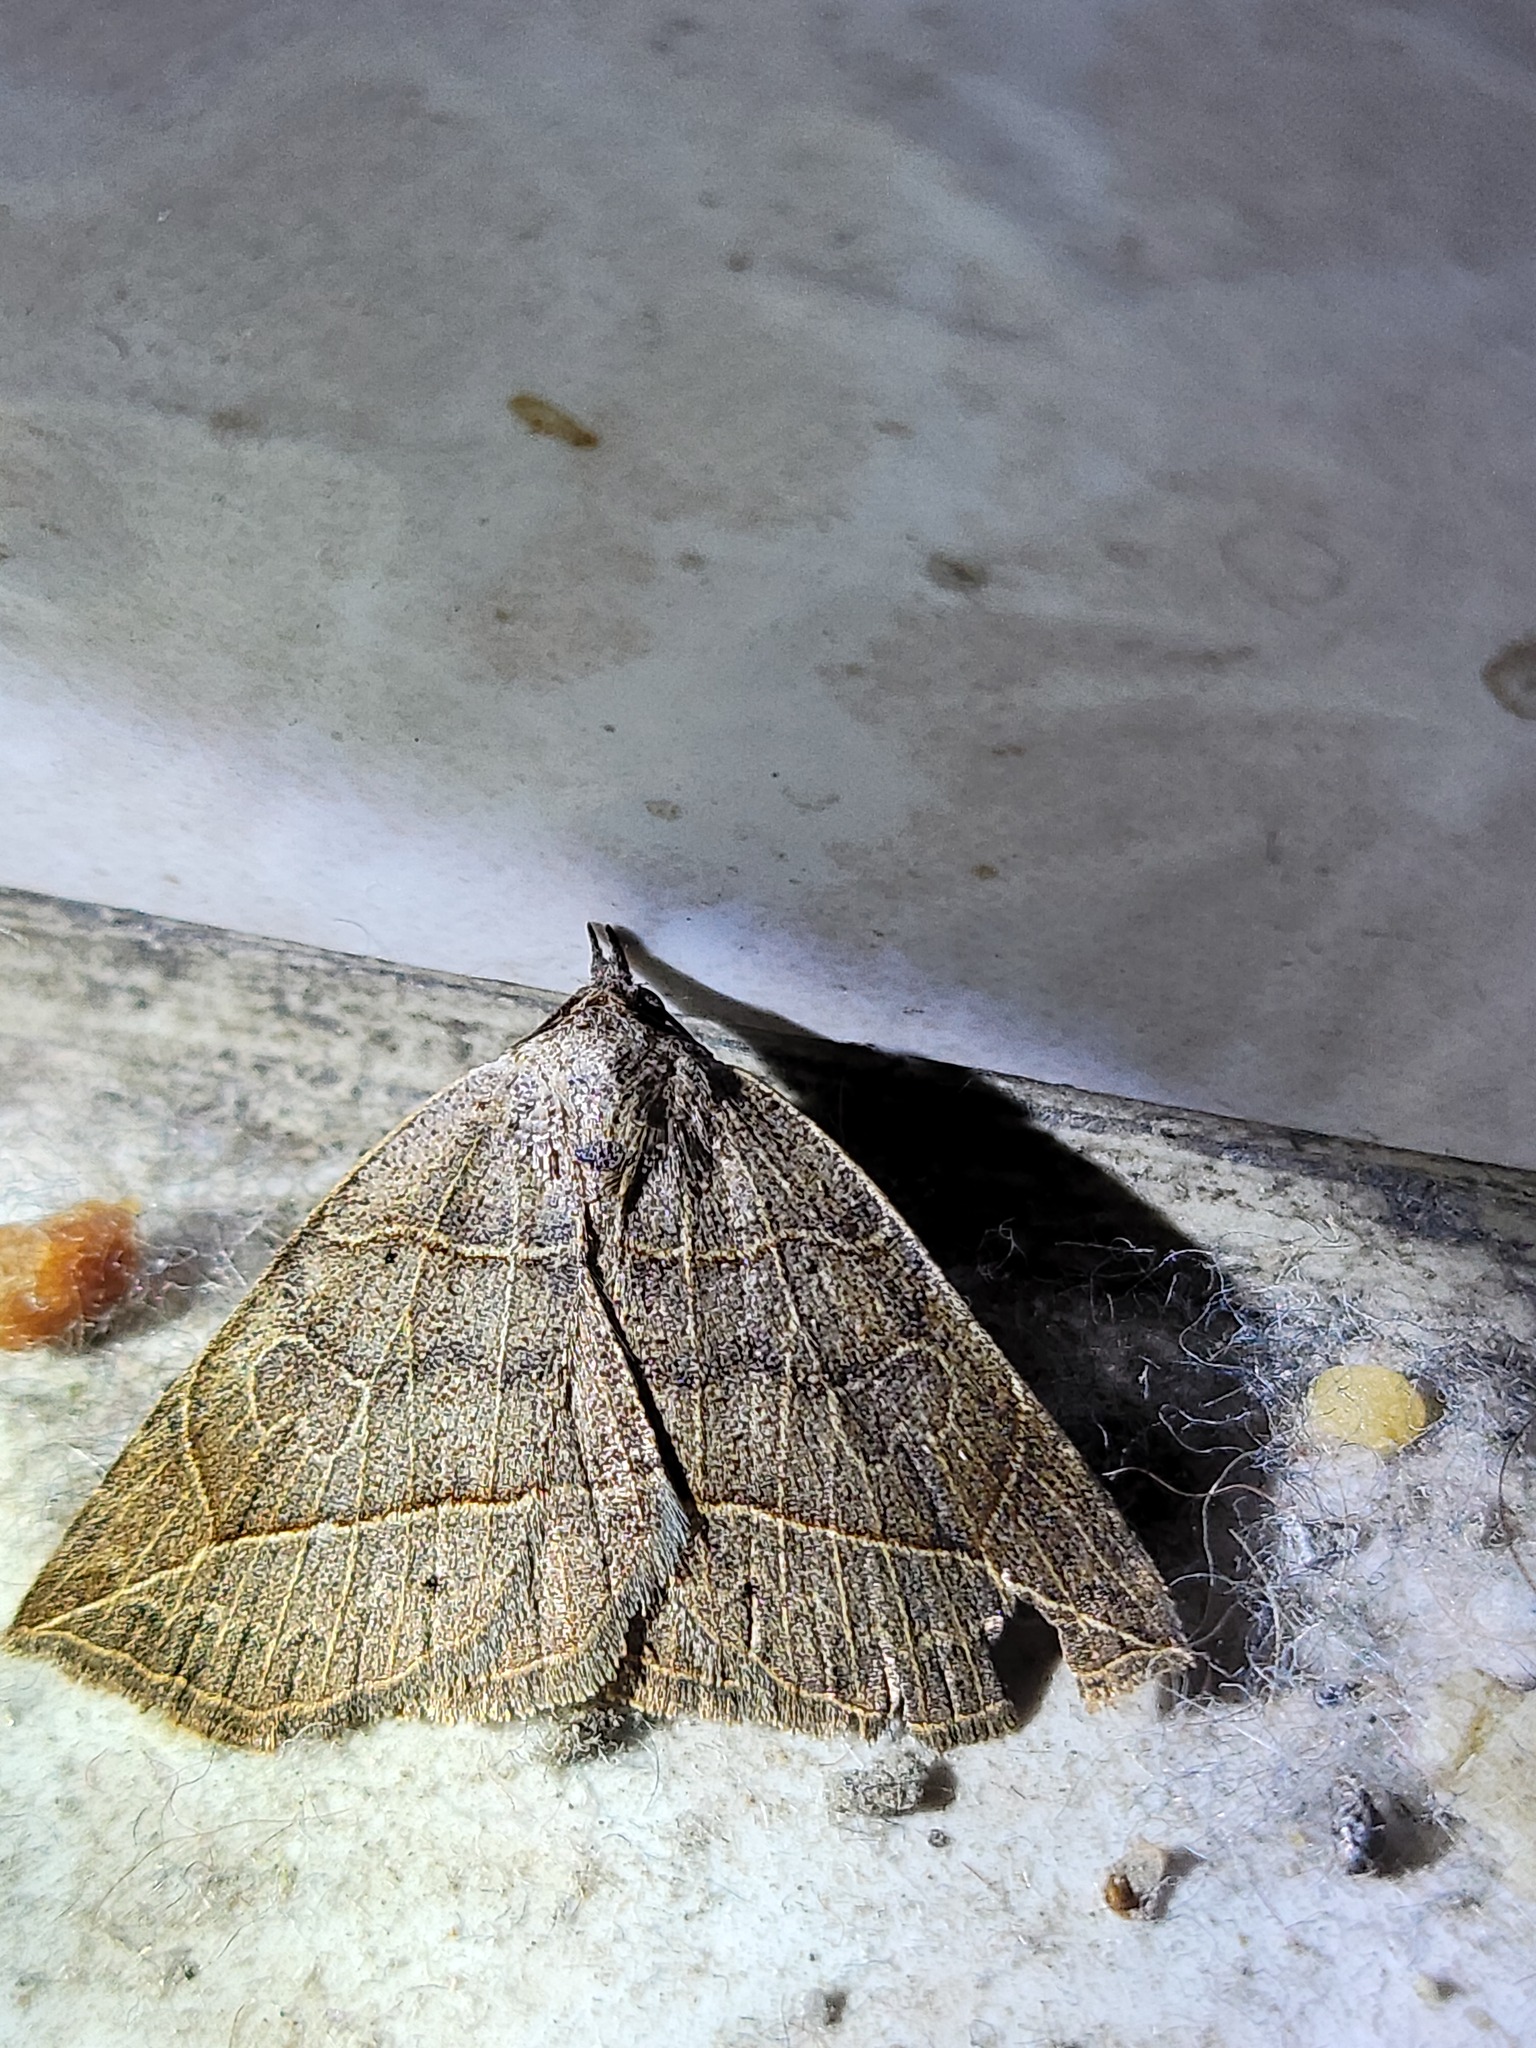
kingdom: Animalia
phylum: Arthropoda
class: Insecta
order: Lepidoptera
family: Erebidae
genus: Isogona
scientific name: Isogona tenuis
